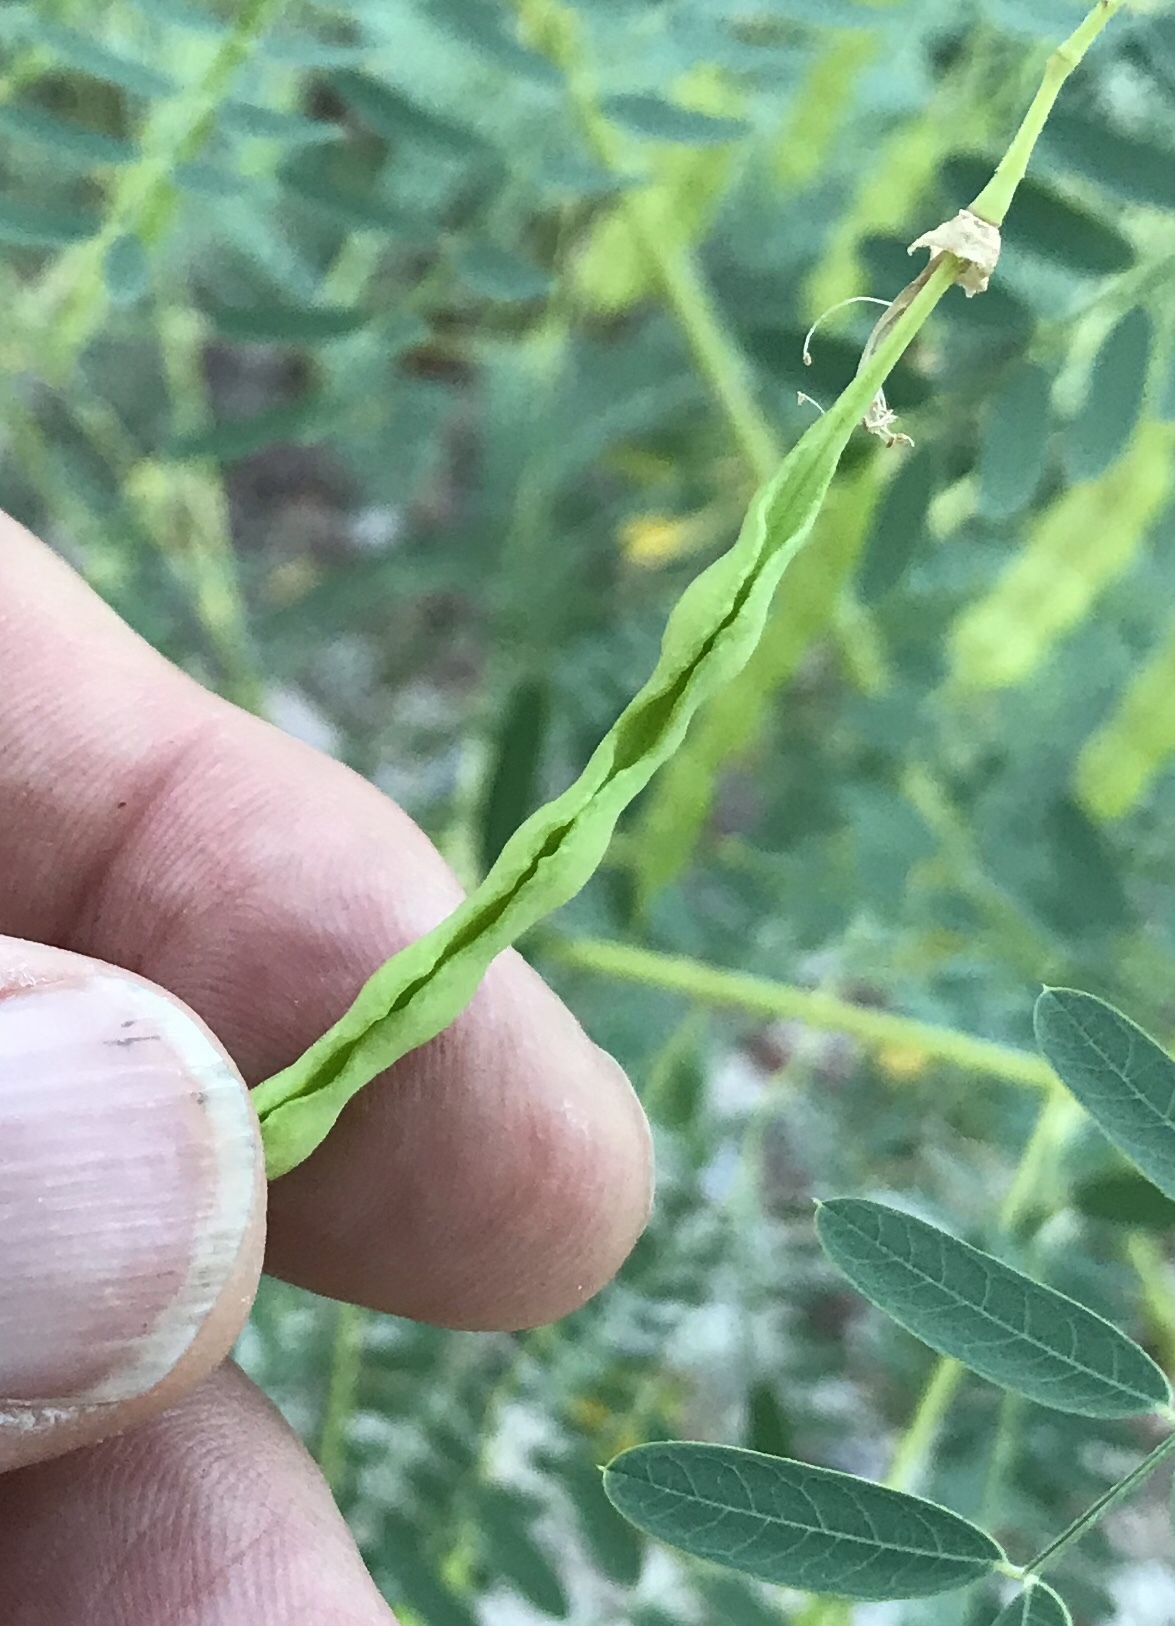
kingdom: Plantae
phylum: Tracheophyta
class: Magnoliopsida
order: Fabales
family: Fabaceae
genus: Sesbania
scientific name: Sesbania drummondii
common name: Poison-bean
